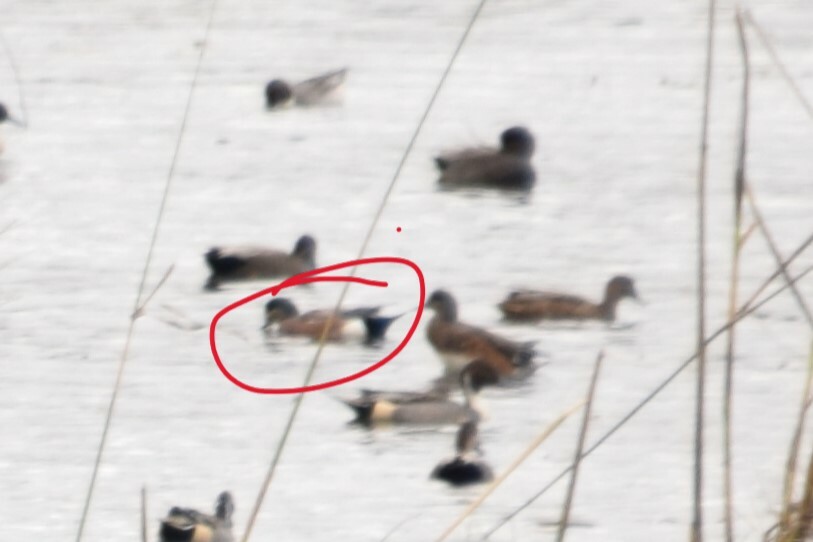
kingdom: Animalia
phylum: Chordata
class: Aves
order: Anseriformes
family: Anatidae
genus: Mareca
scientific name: Mareca americana
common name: American wigeon
